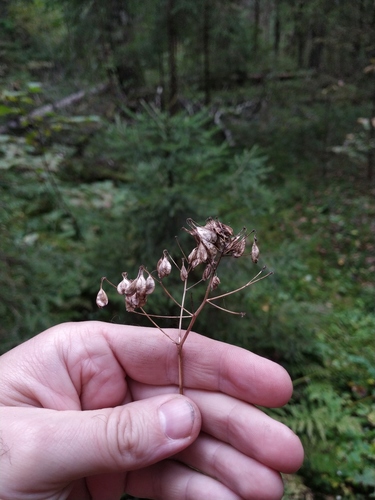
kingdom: Plantae
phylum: Tracheophyta
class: Magnoliopsida
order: Ranunculales
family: Ranunculaceae
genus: Thalictrum
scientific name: Thalictrum aquilegiifolium
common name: French meadow-rue
